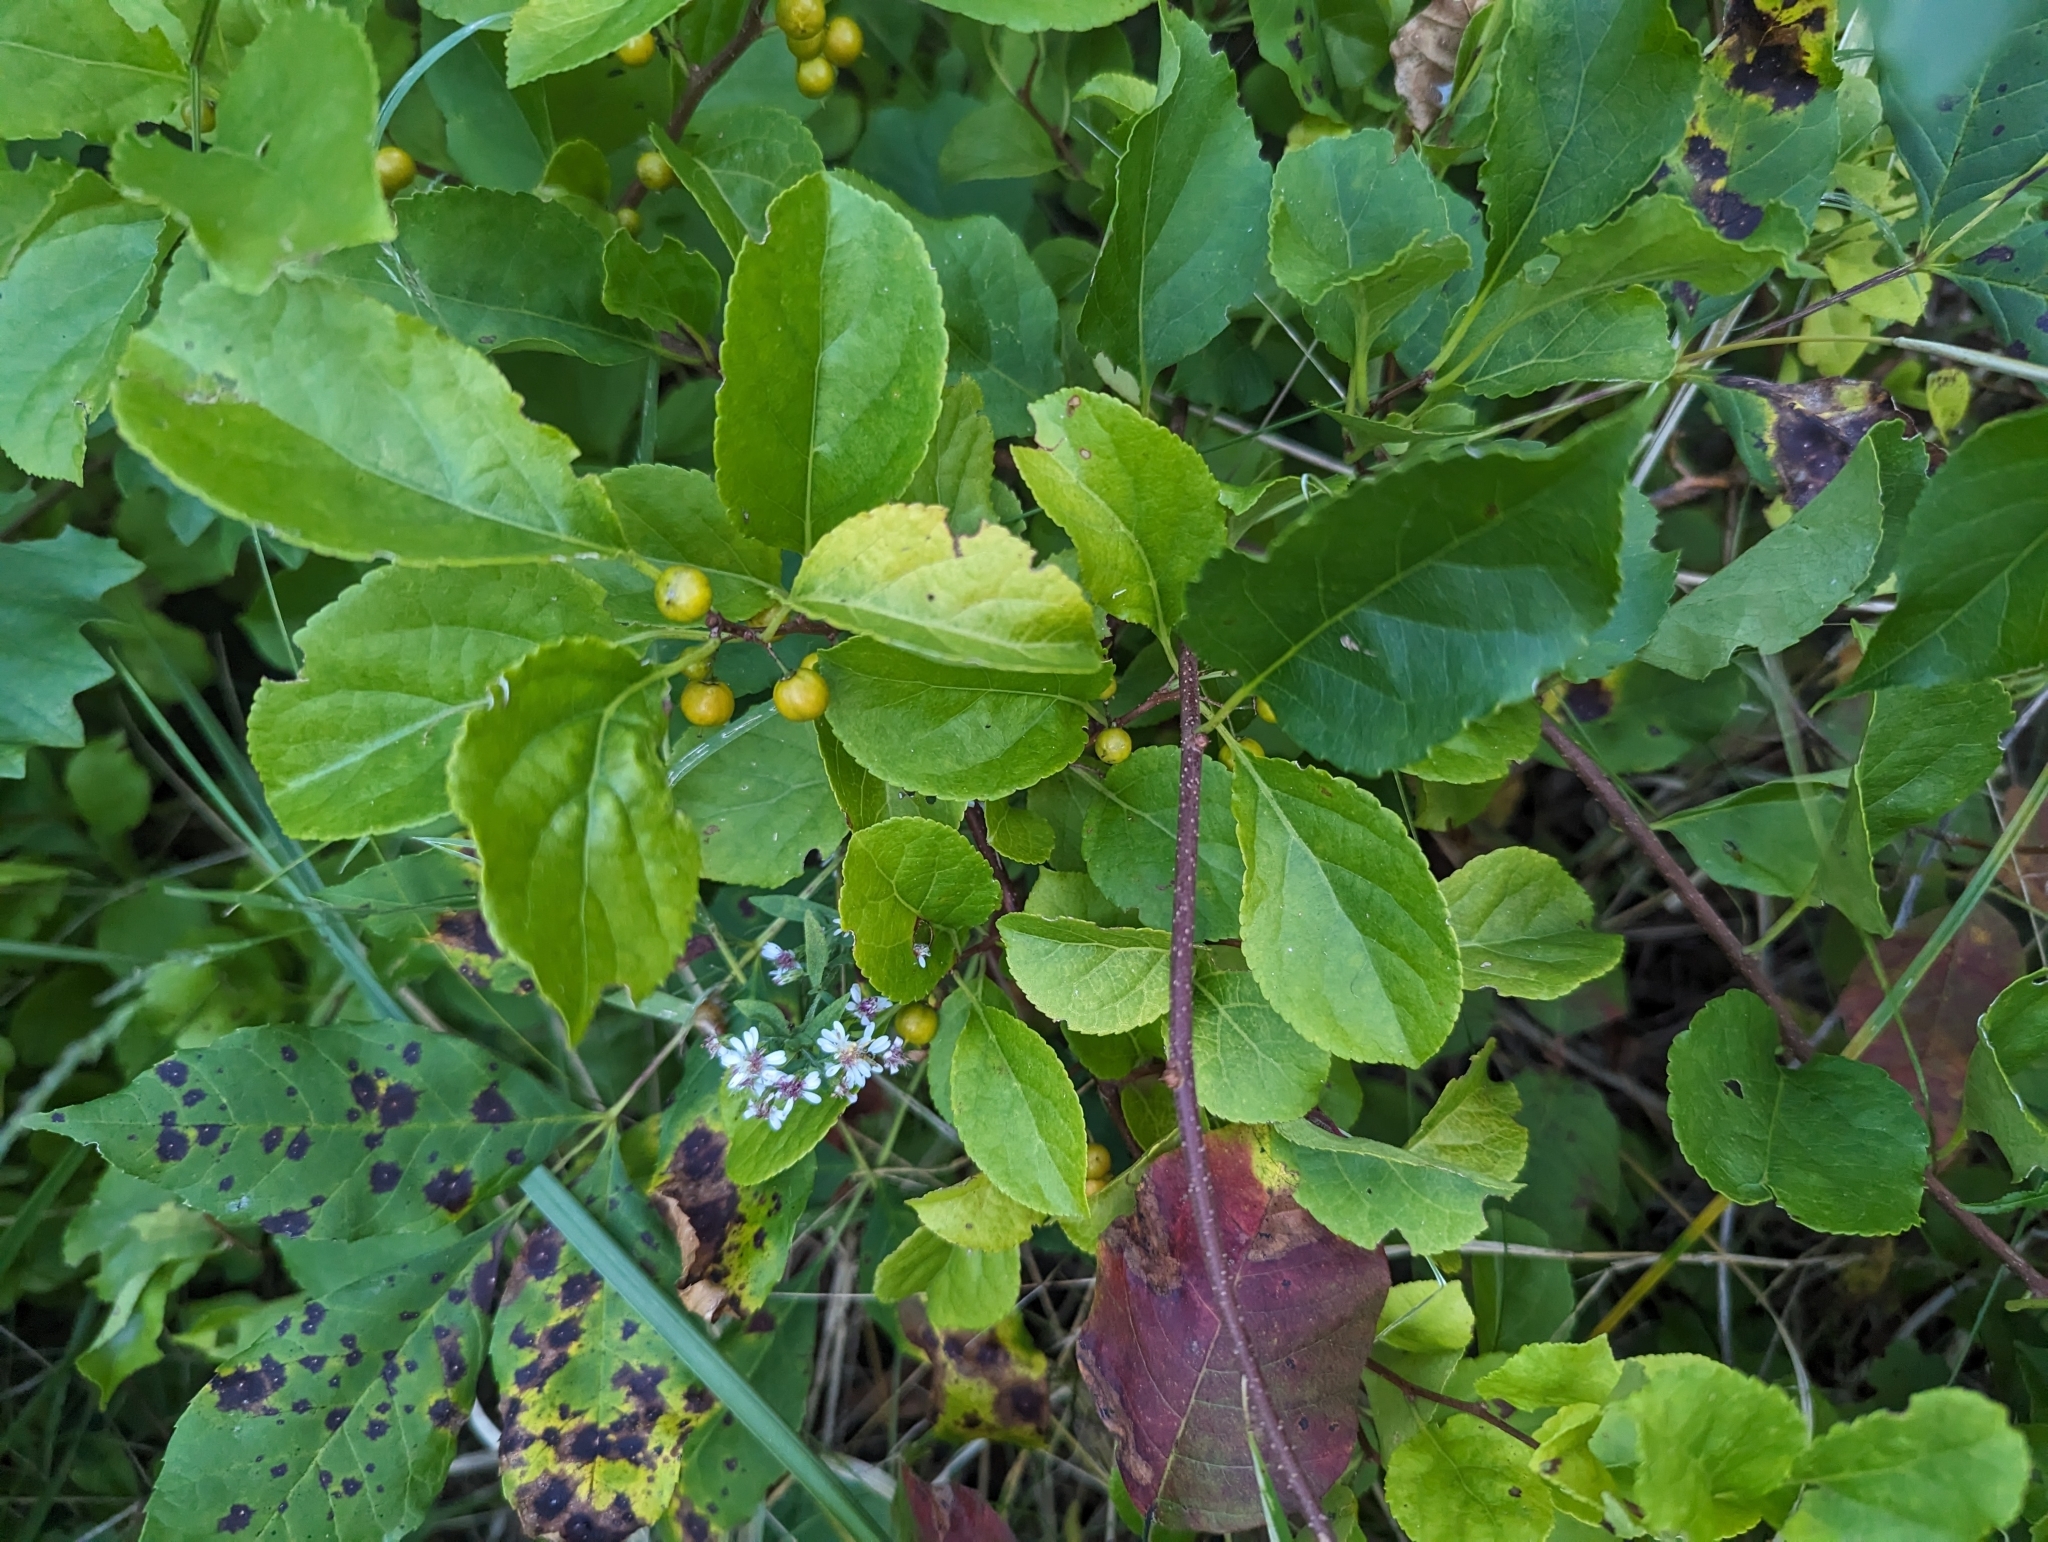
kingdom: Plantae
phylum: Tracheophyta
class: Magnoliopsida
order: Celastrales
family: Celastraceae
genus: Celastrus
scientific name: Celastrus orbiculatus
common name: Oriental bittersweet
